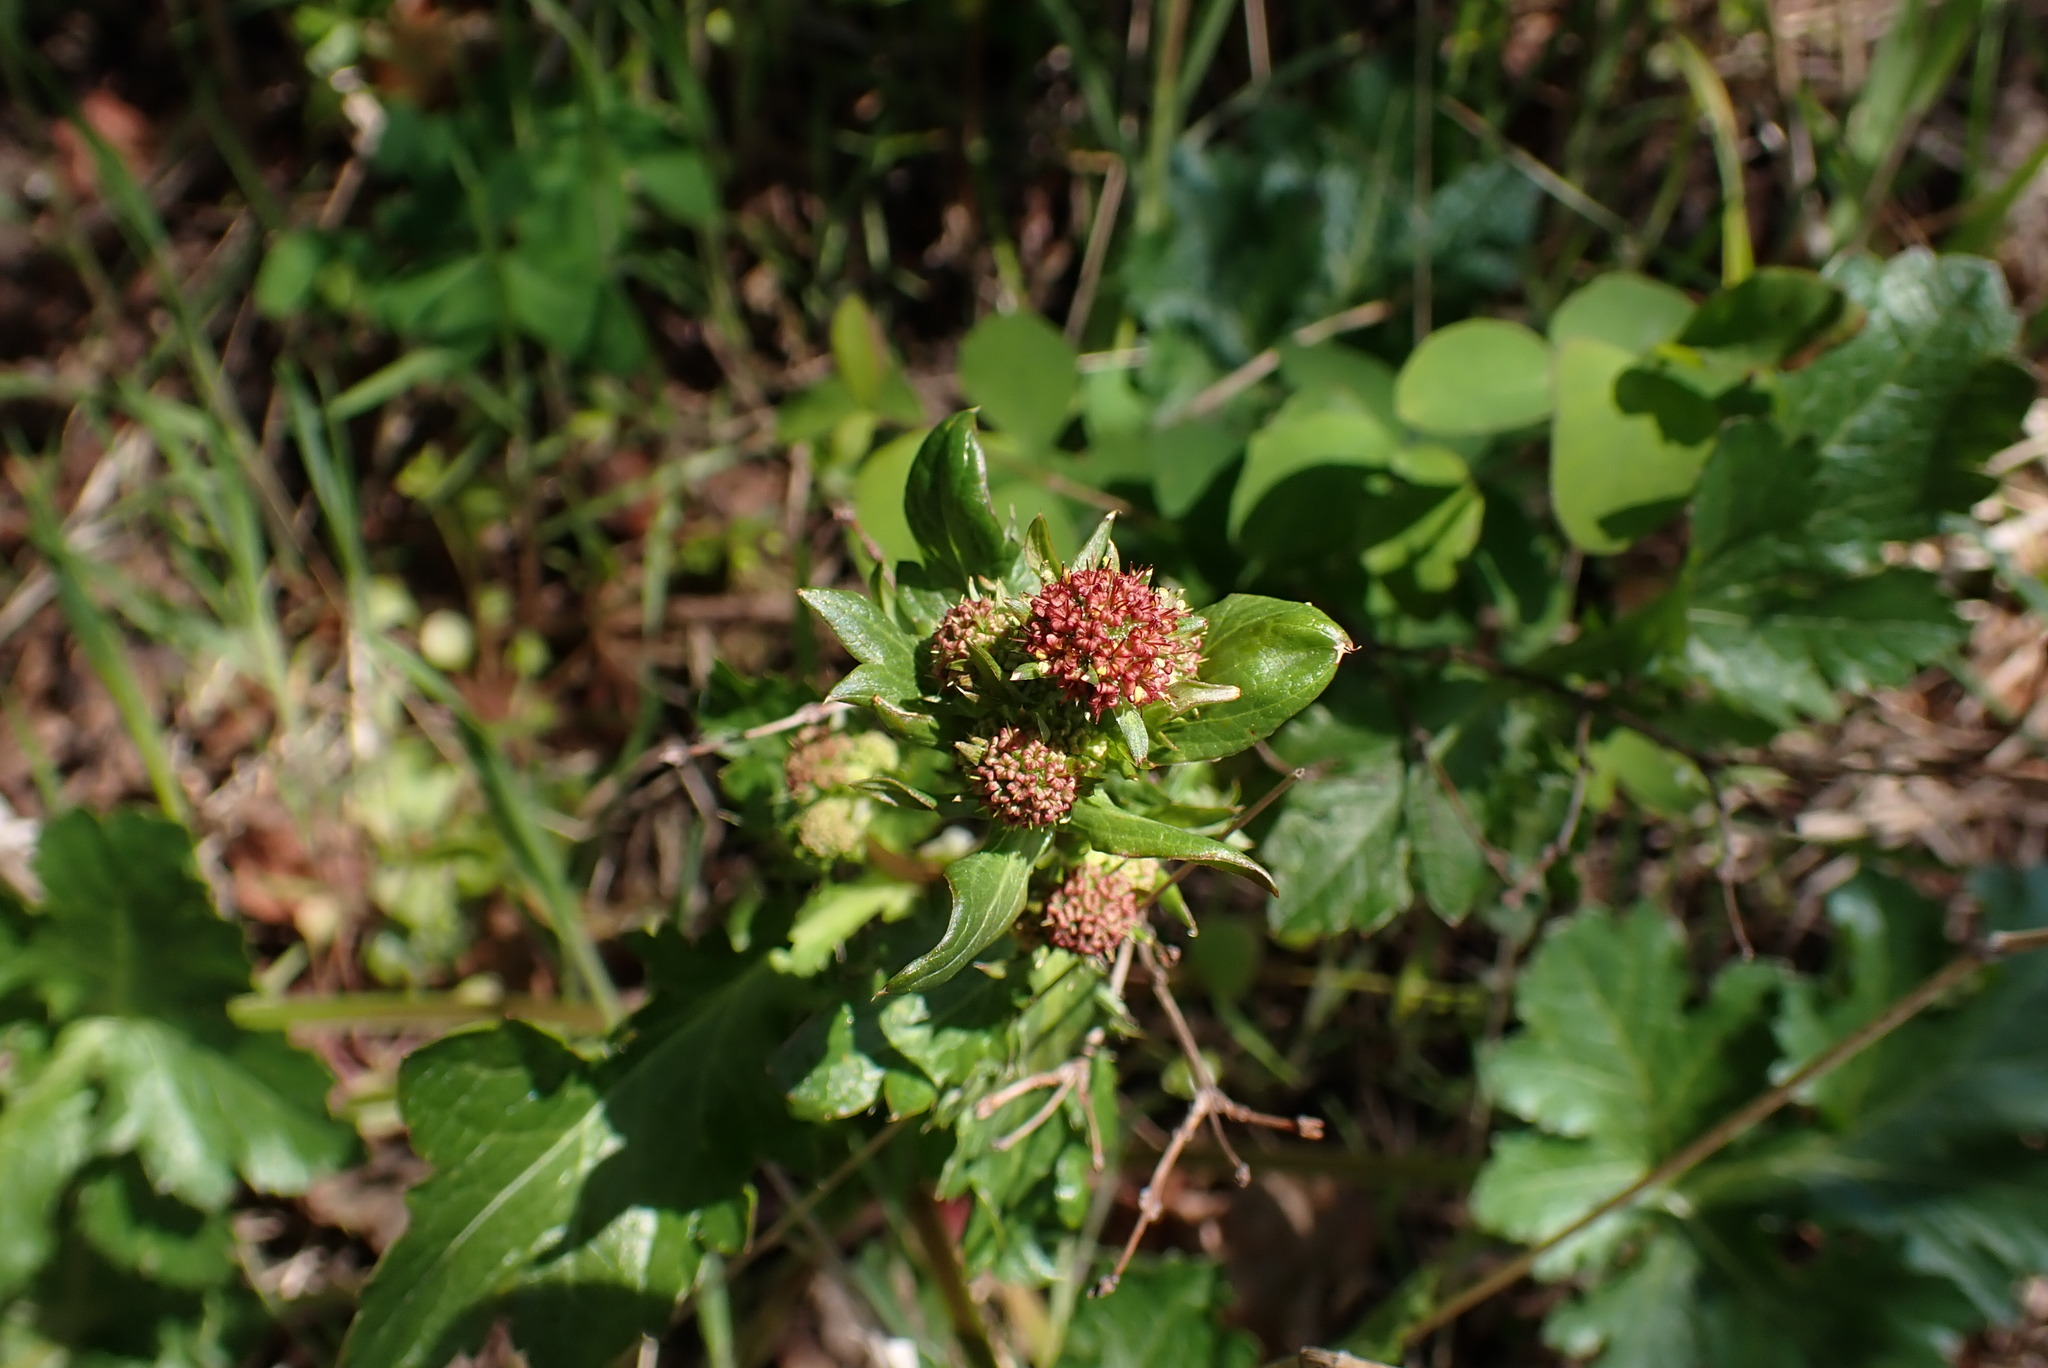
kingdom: Plantae
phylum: Tracheophyta
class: Magnoliopsida
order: Apiales
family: Apiaceae
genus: Sanicula
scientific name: Sanicula crassicaulis
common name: Western snakeroot
